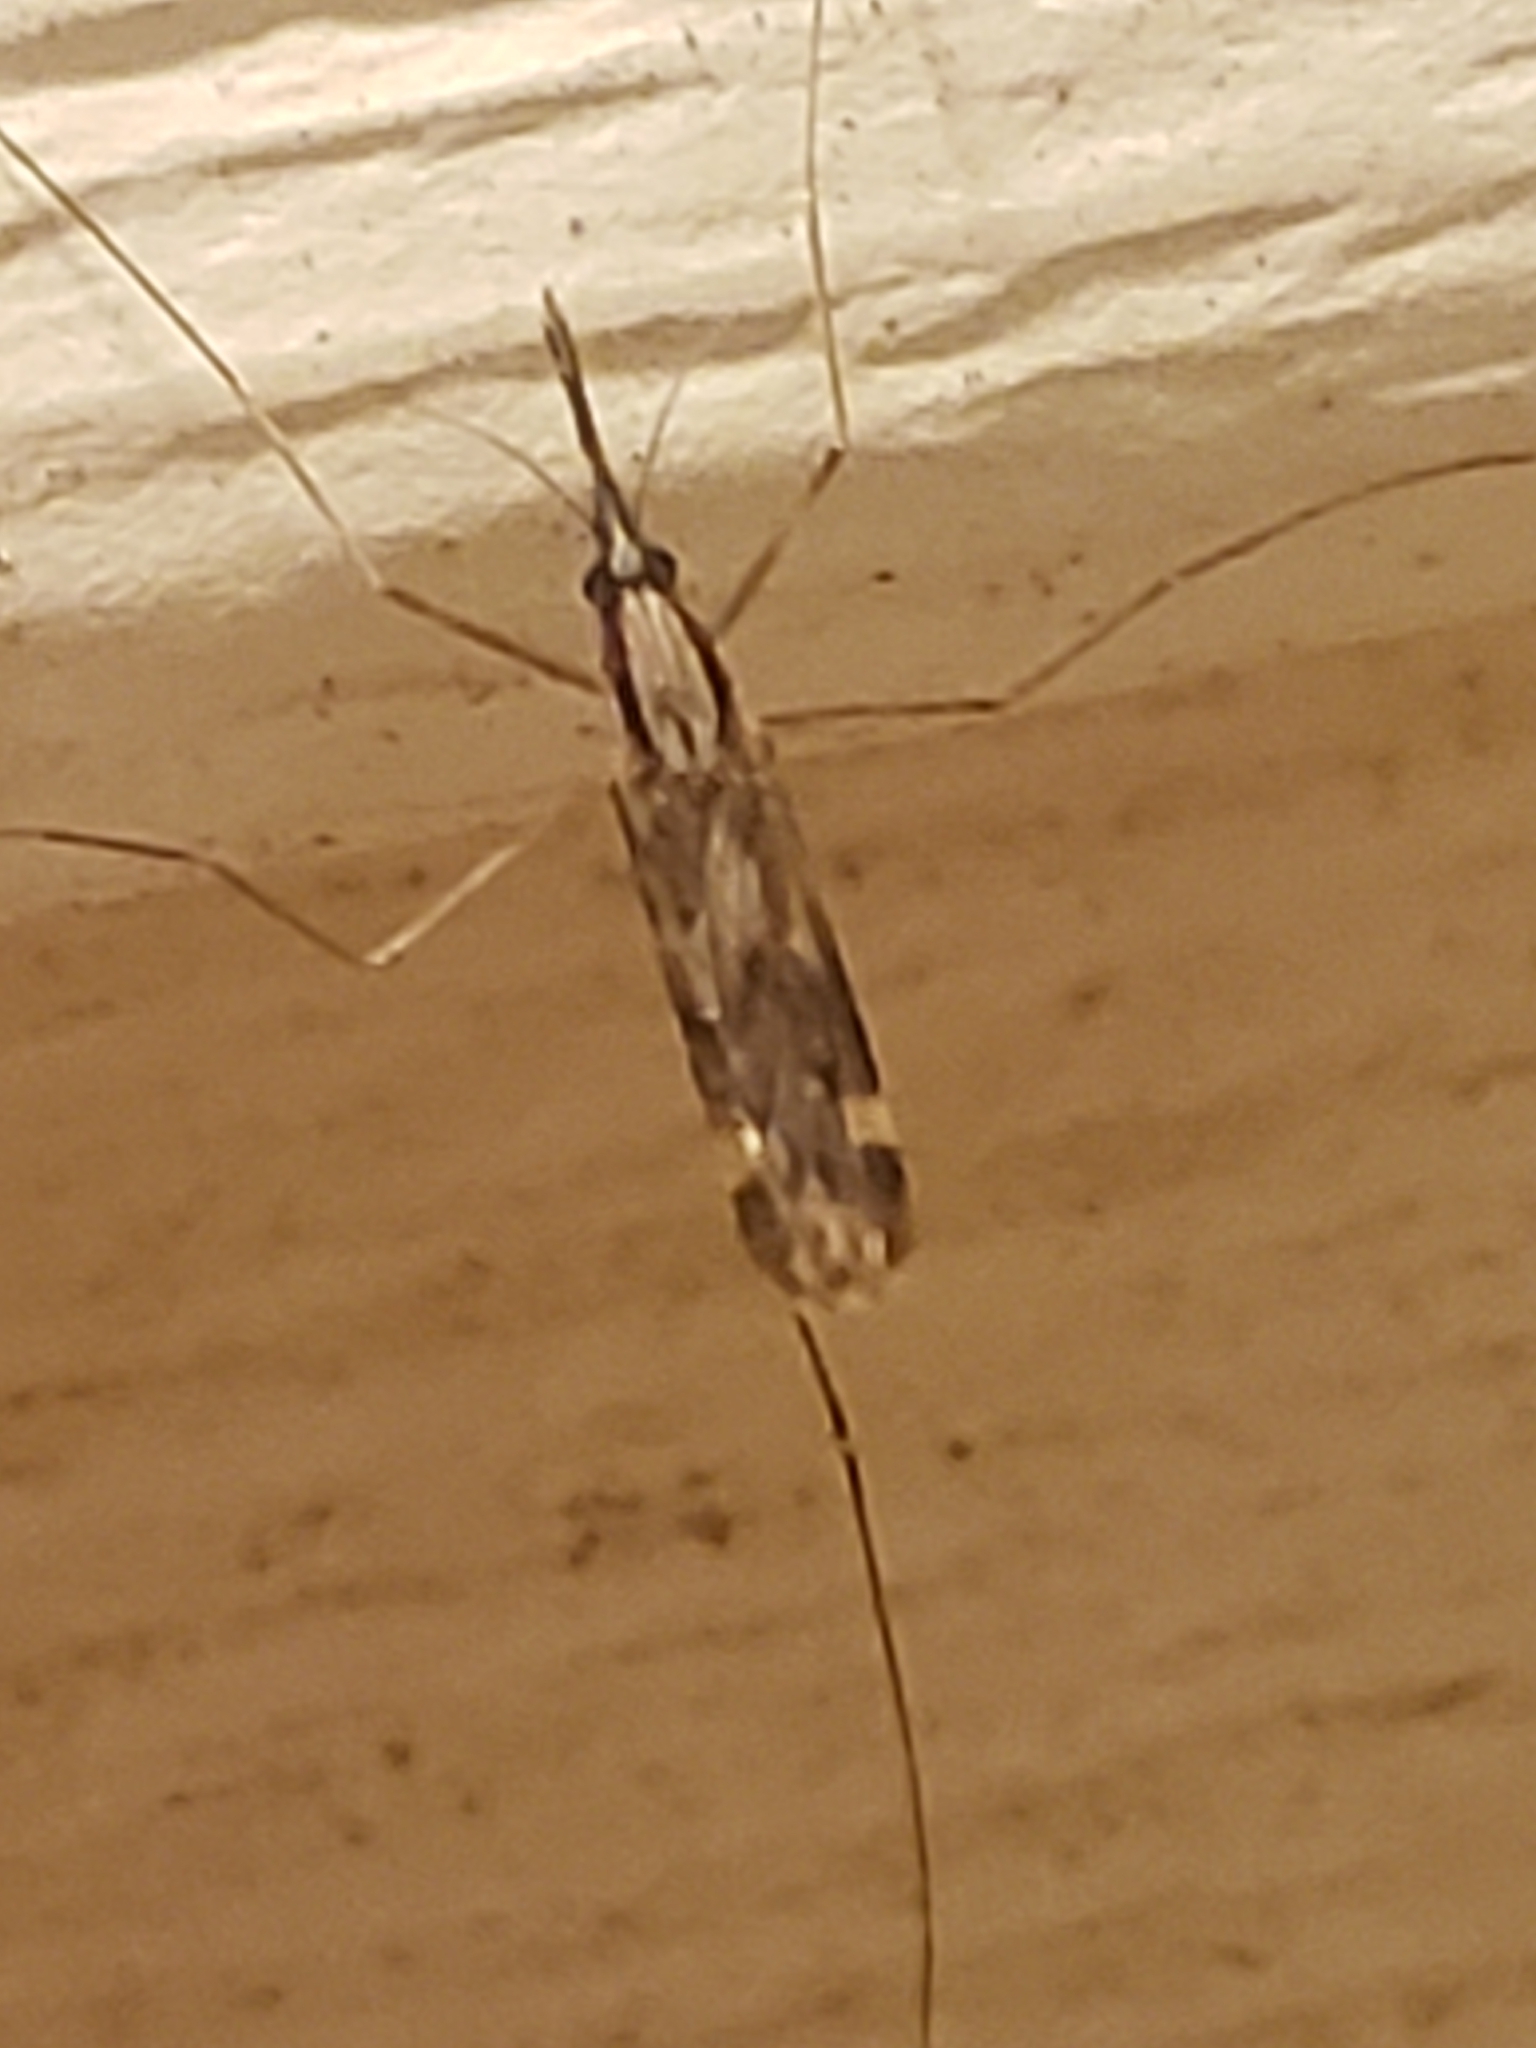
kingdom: Animalia
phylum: Arthropoda
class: Insecta
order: Diptera
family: Culicidae
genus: Anopheles
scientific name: Anopheles punctipennis
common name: Woodland malaria mosquito
